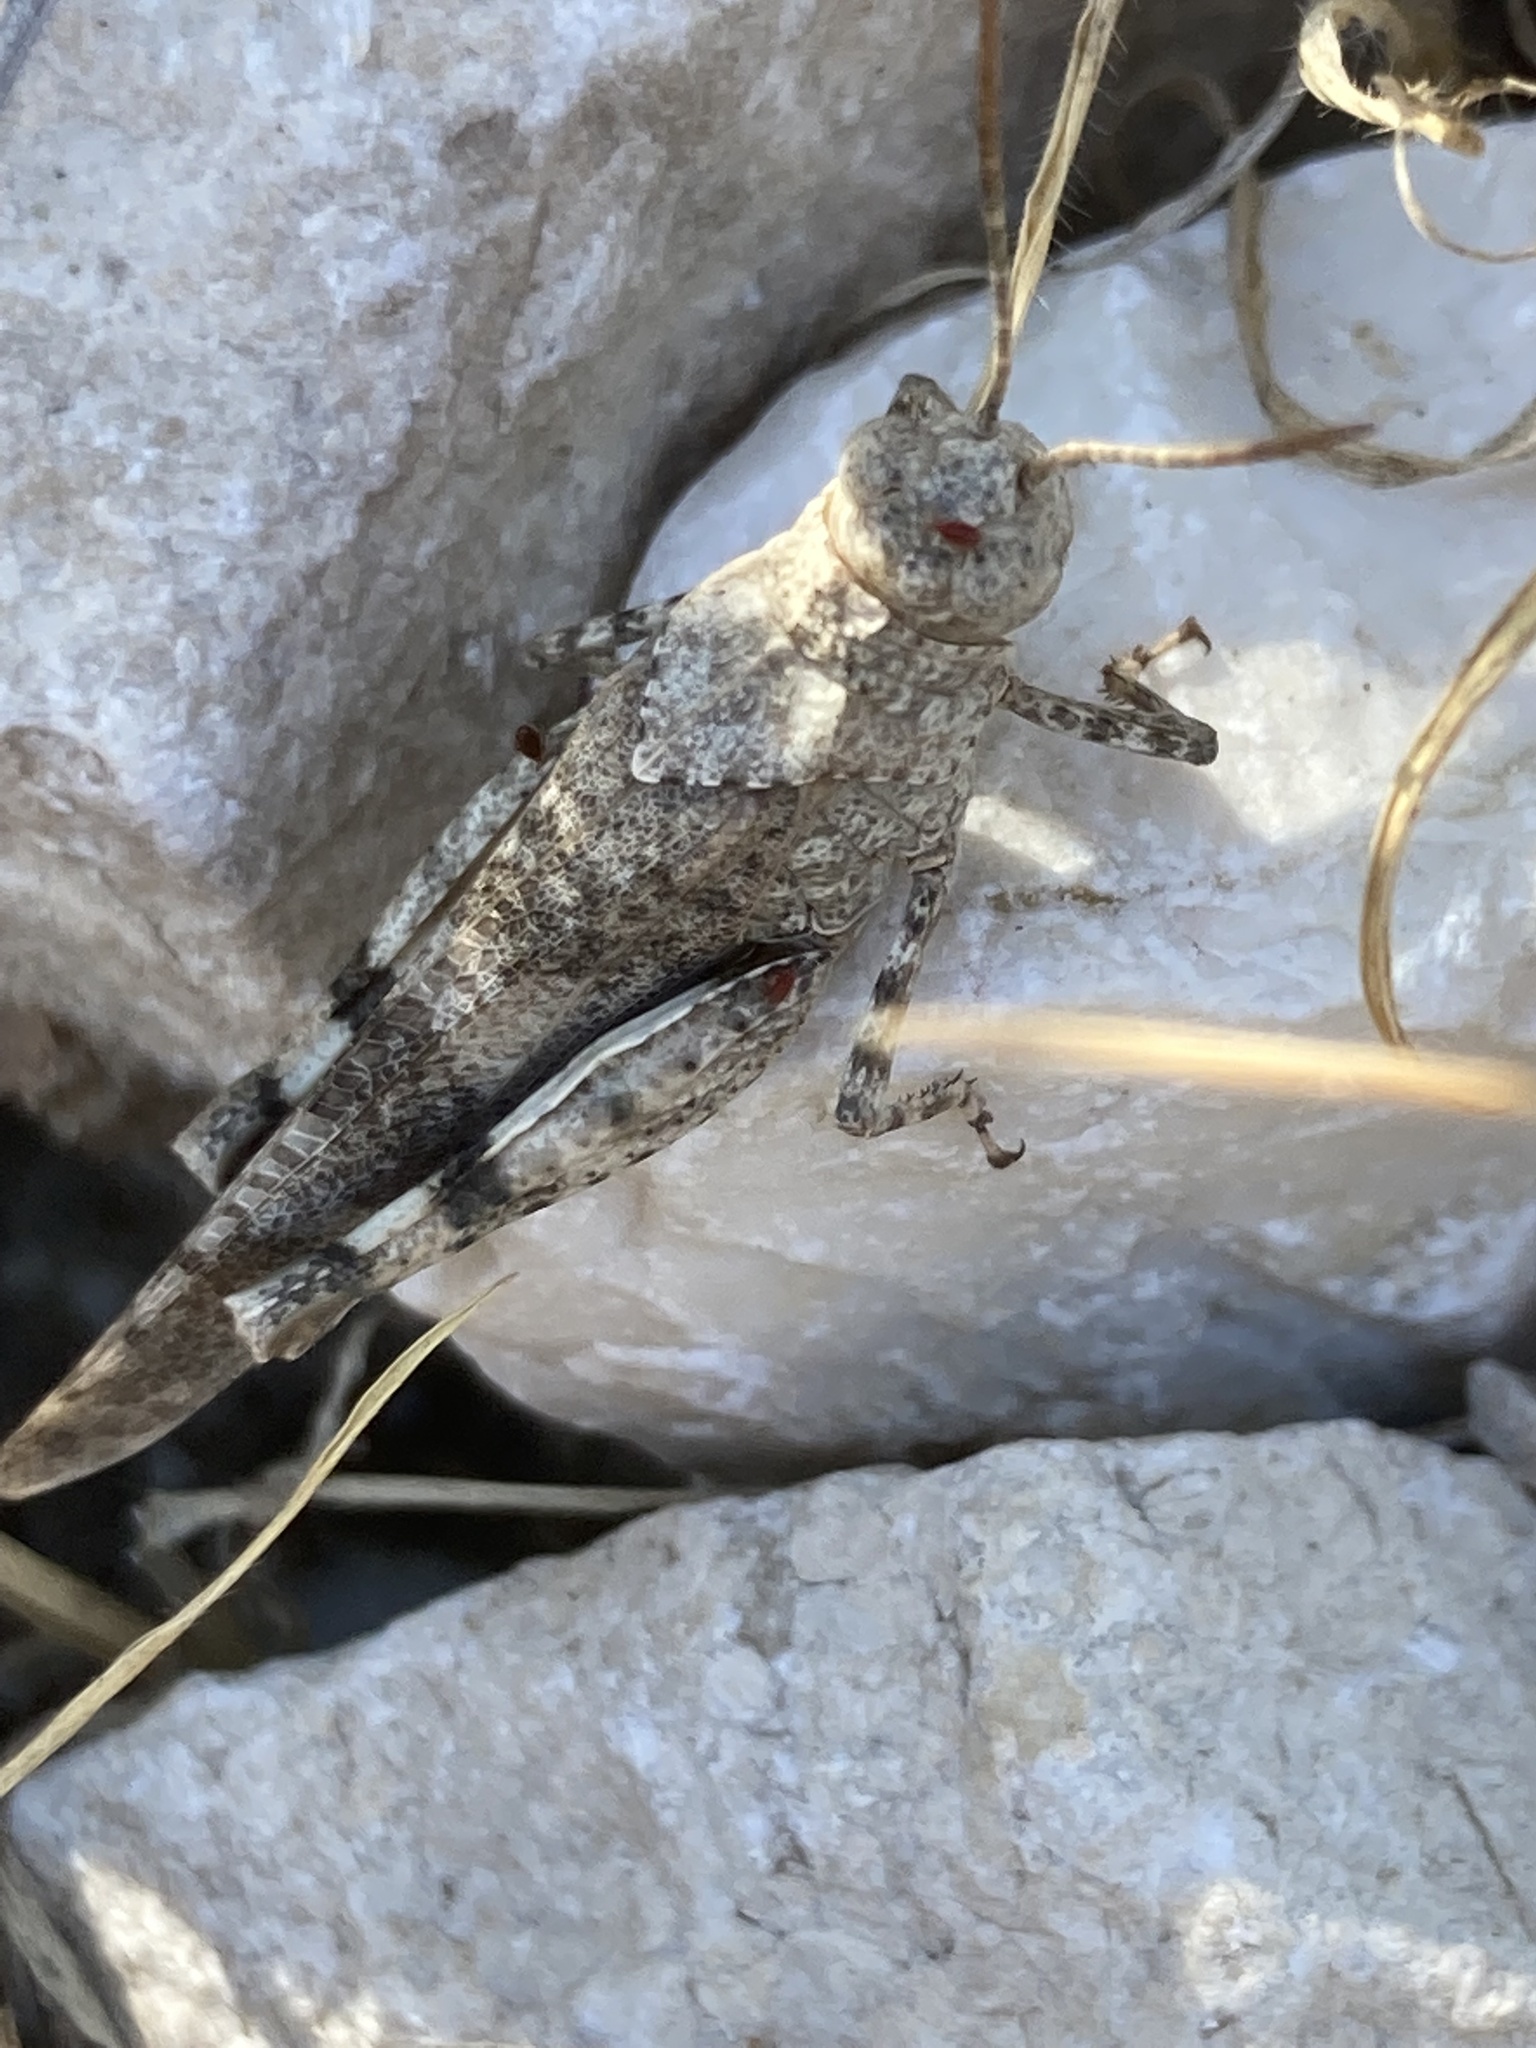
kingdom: Animalia
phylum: Arthropoda
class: Insecta
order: Orthoptera
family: Acrididae
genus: Oedipoda
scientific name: Oedipoda coerulea
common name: Iberian band-winged grasshopper
